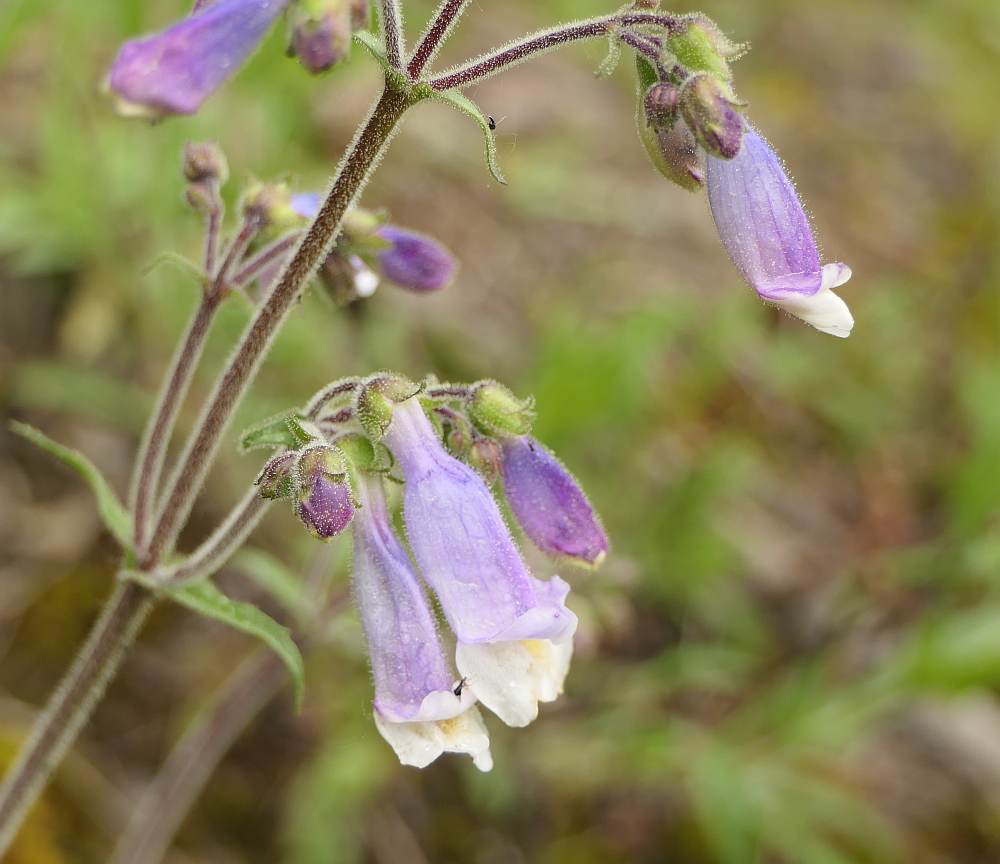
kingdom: Plantae
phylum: Tracheophyta
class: Magnoliopsida
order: Lamiales
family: Plantaginaceae
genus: Penstemon
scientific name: Penstemon hirsutus
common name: Hairy beardtongue
